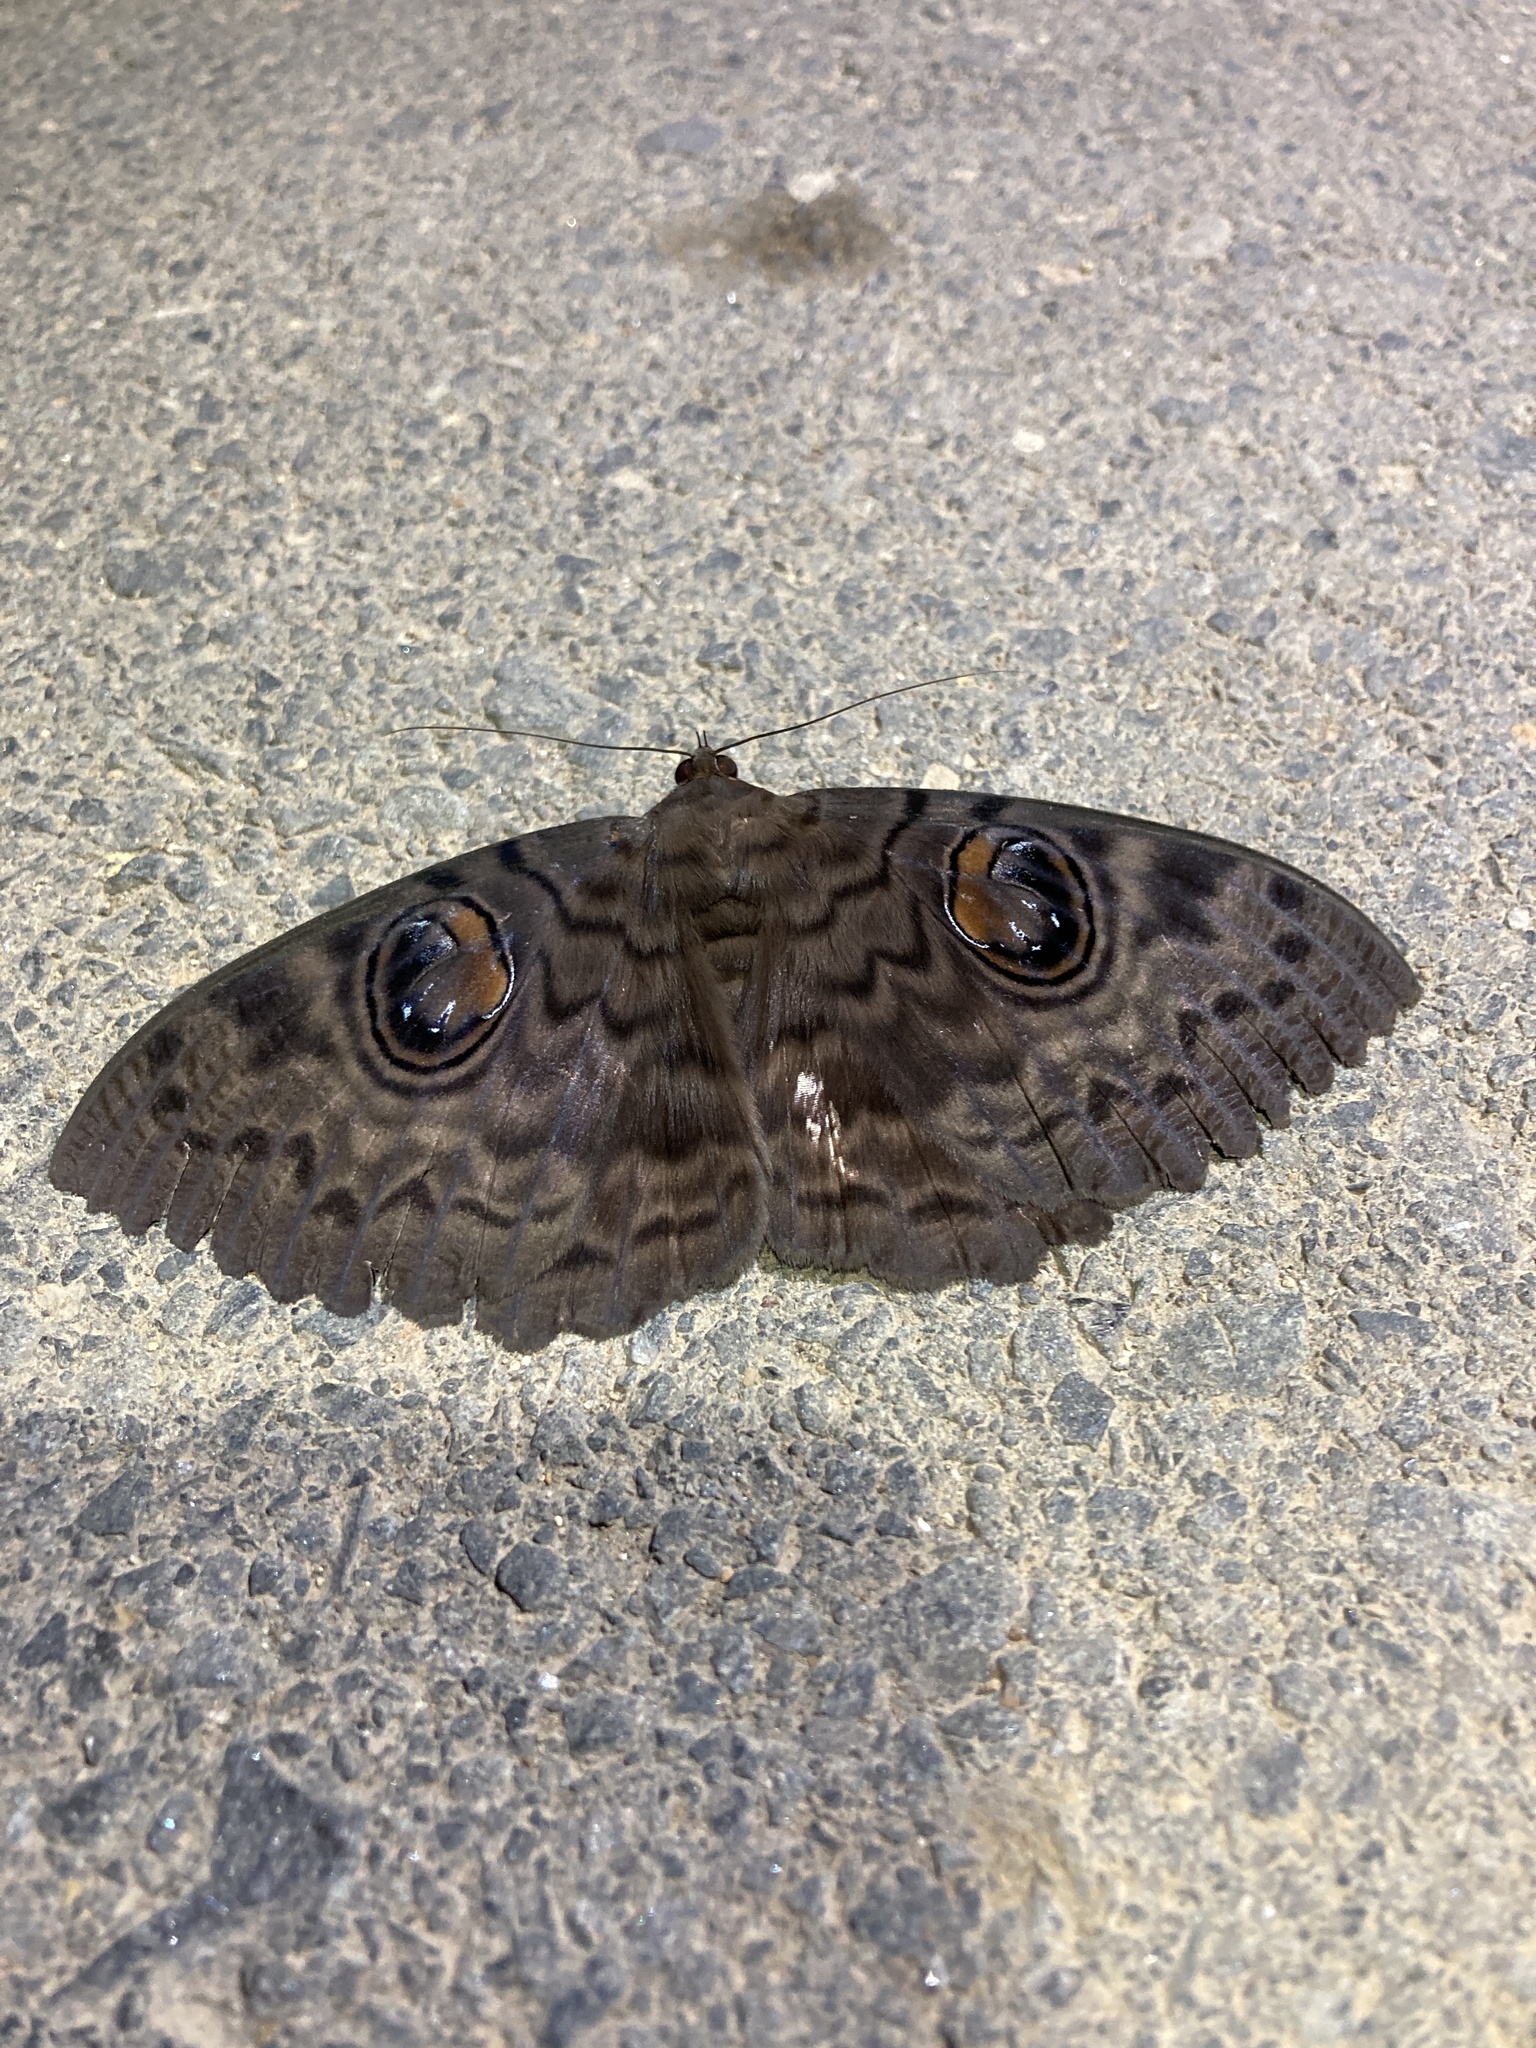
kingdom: Animalia
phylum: Arthropoda
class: Insecta
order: Lepidoptera
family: Erebidae
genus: Erebus
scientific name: Erebus walkeri
